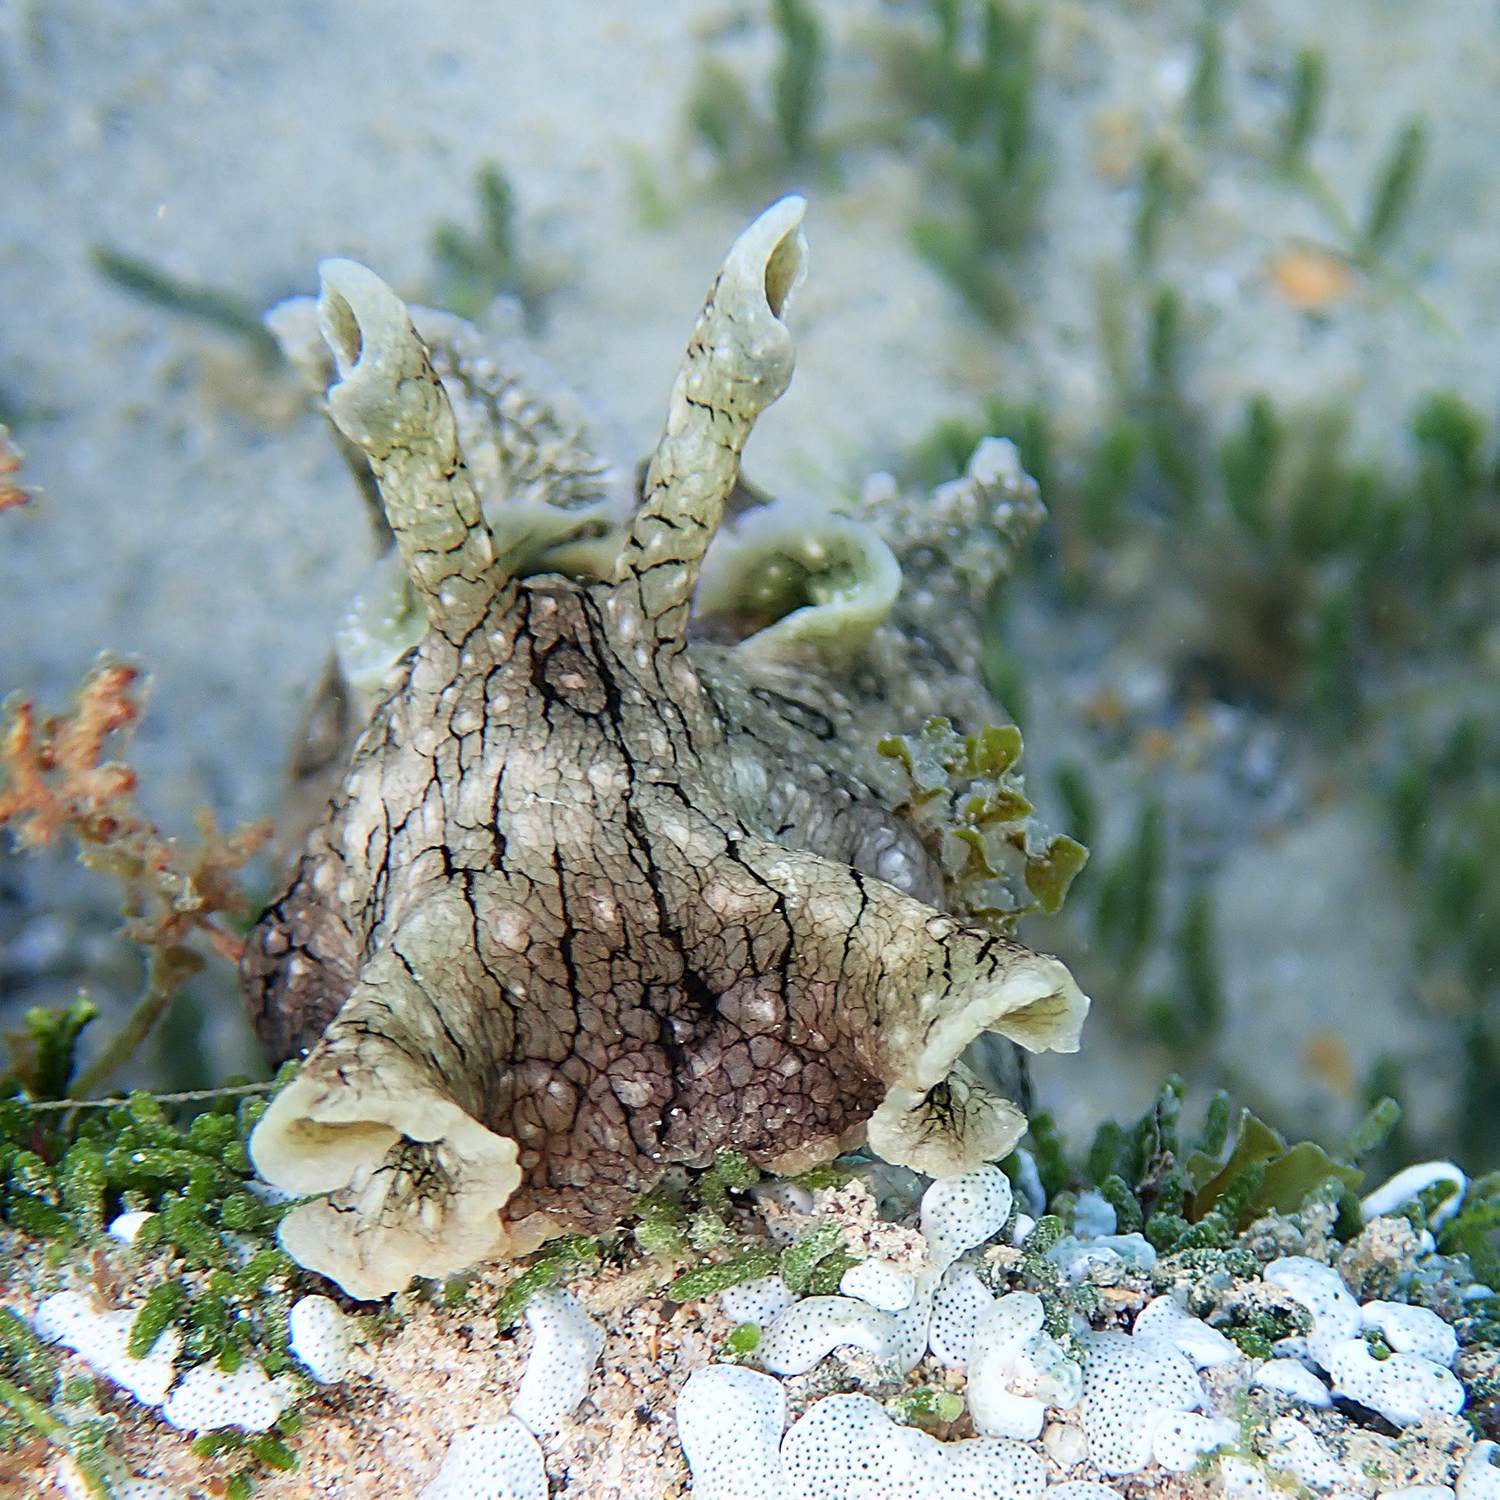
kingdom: Animalia
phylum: Mollusca
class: Gastropoda
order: Aplysiida
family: Aplysiidae
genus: Aplysia
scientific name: Aplysia argus
